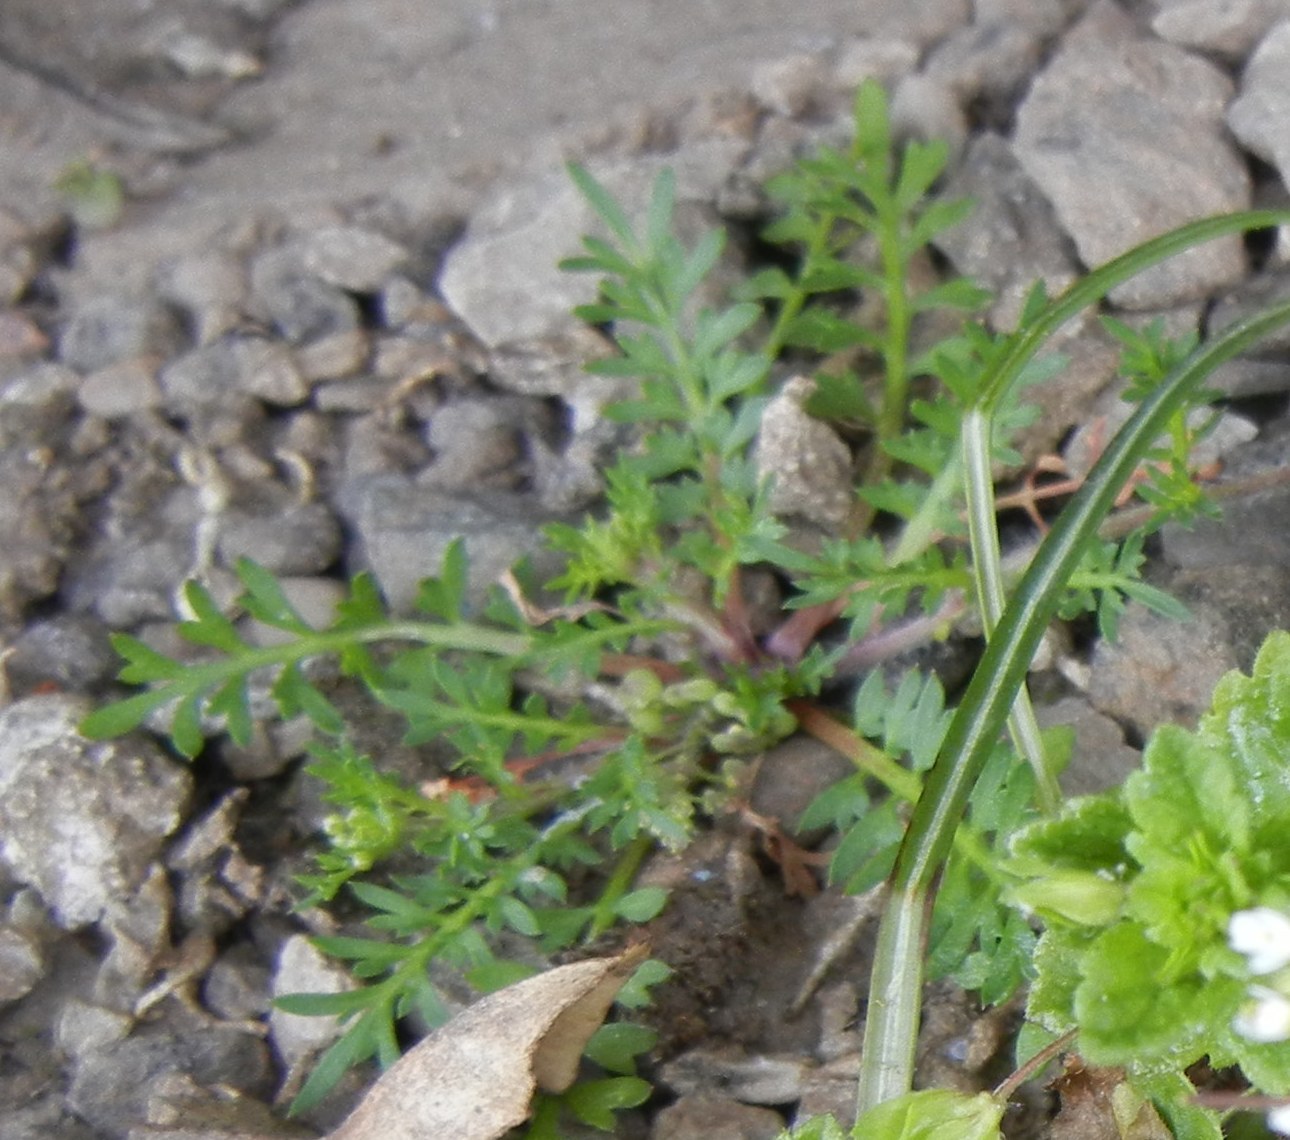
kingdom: Plantae
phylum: Tracheophyta
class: Magnoliopsida
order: Brassicales
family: Brassicaceae
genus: Lepidium
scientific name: Lepidium didymum
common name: Lesser swinecress
